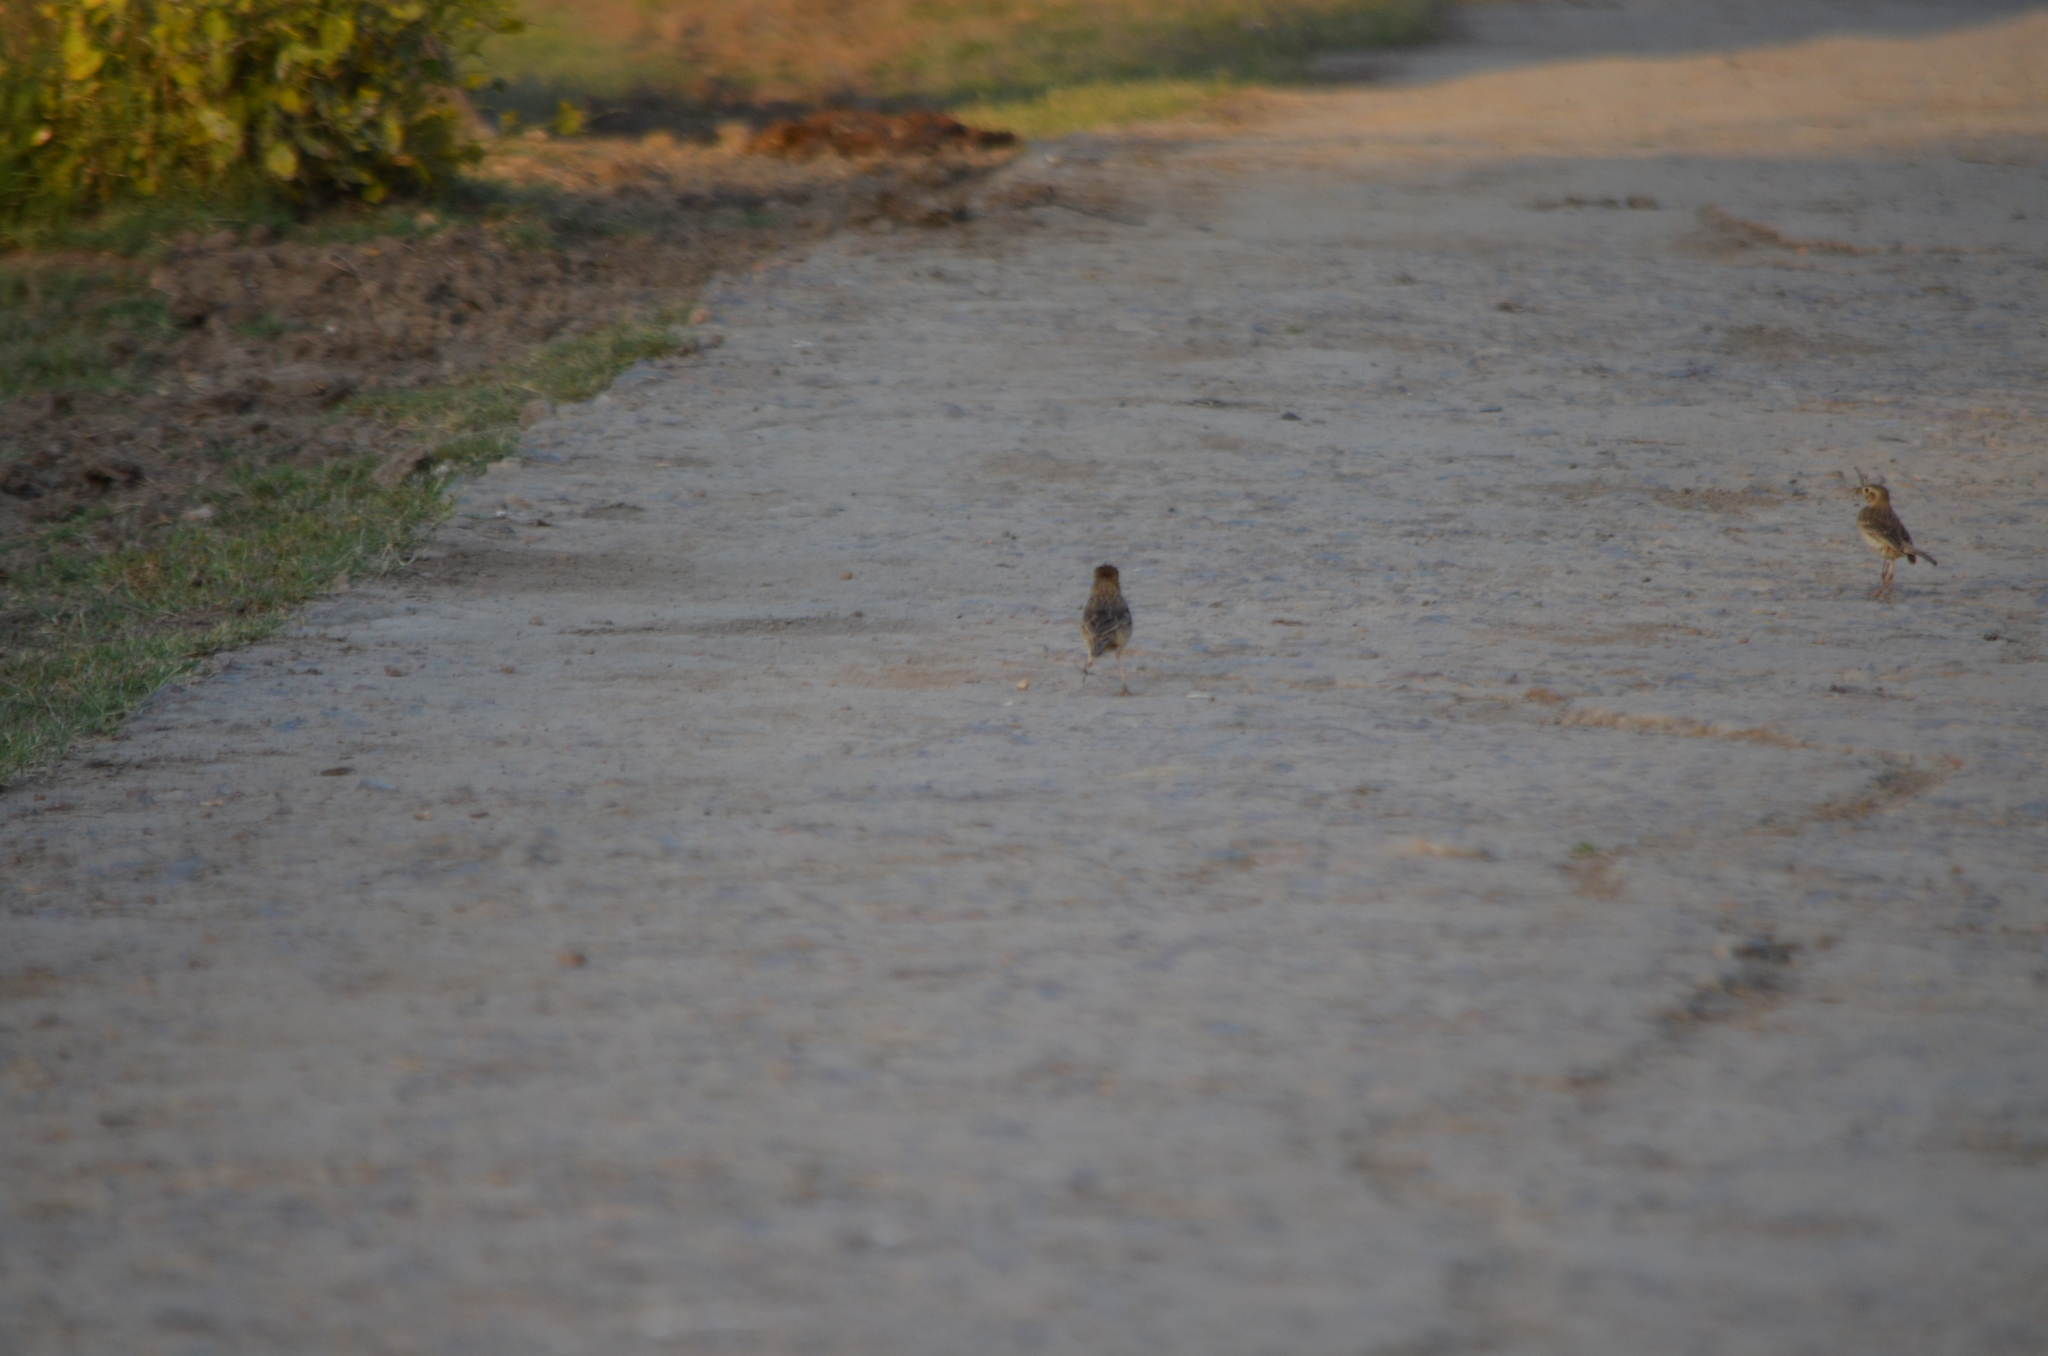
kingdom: Animalia
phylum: Chordata
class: Aves
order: Passeriformes
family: Motacillidae
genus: Anthus
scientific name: Anthus rufulus
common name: Paddyfield pipit
